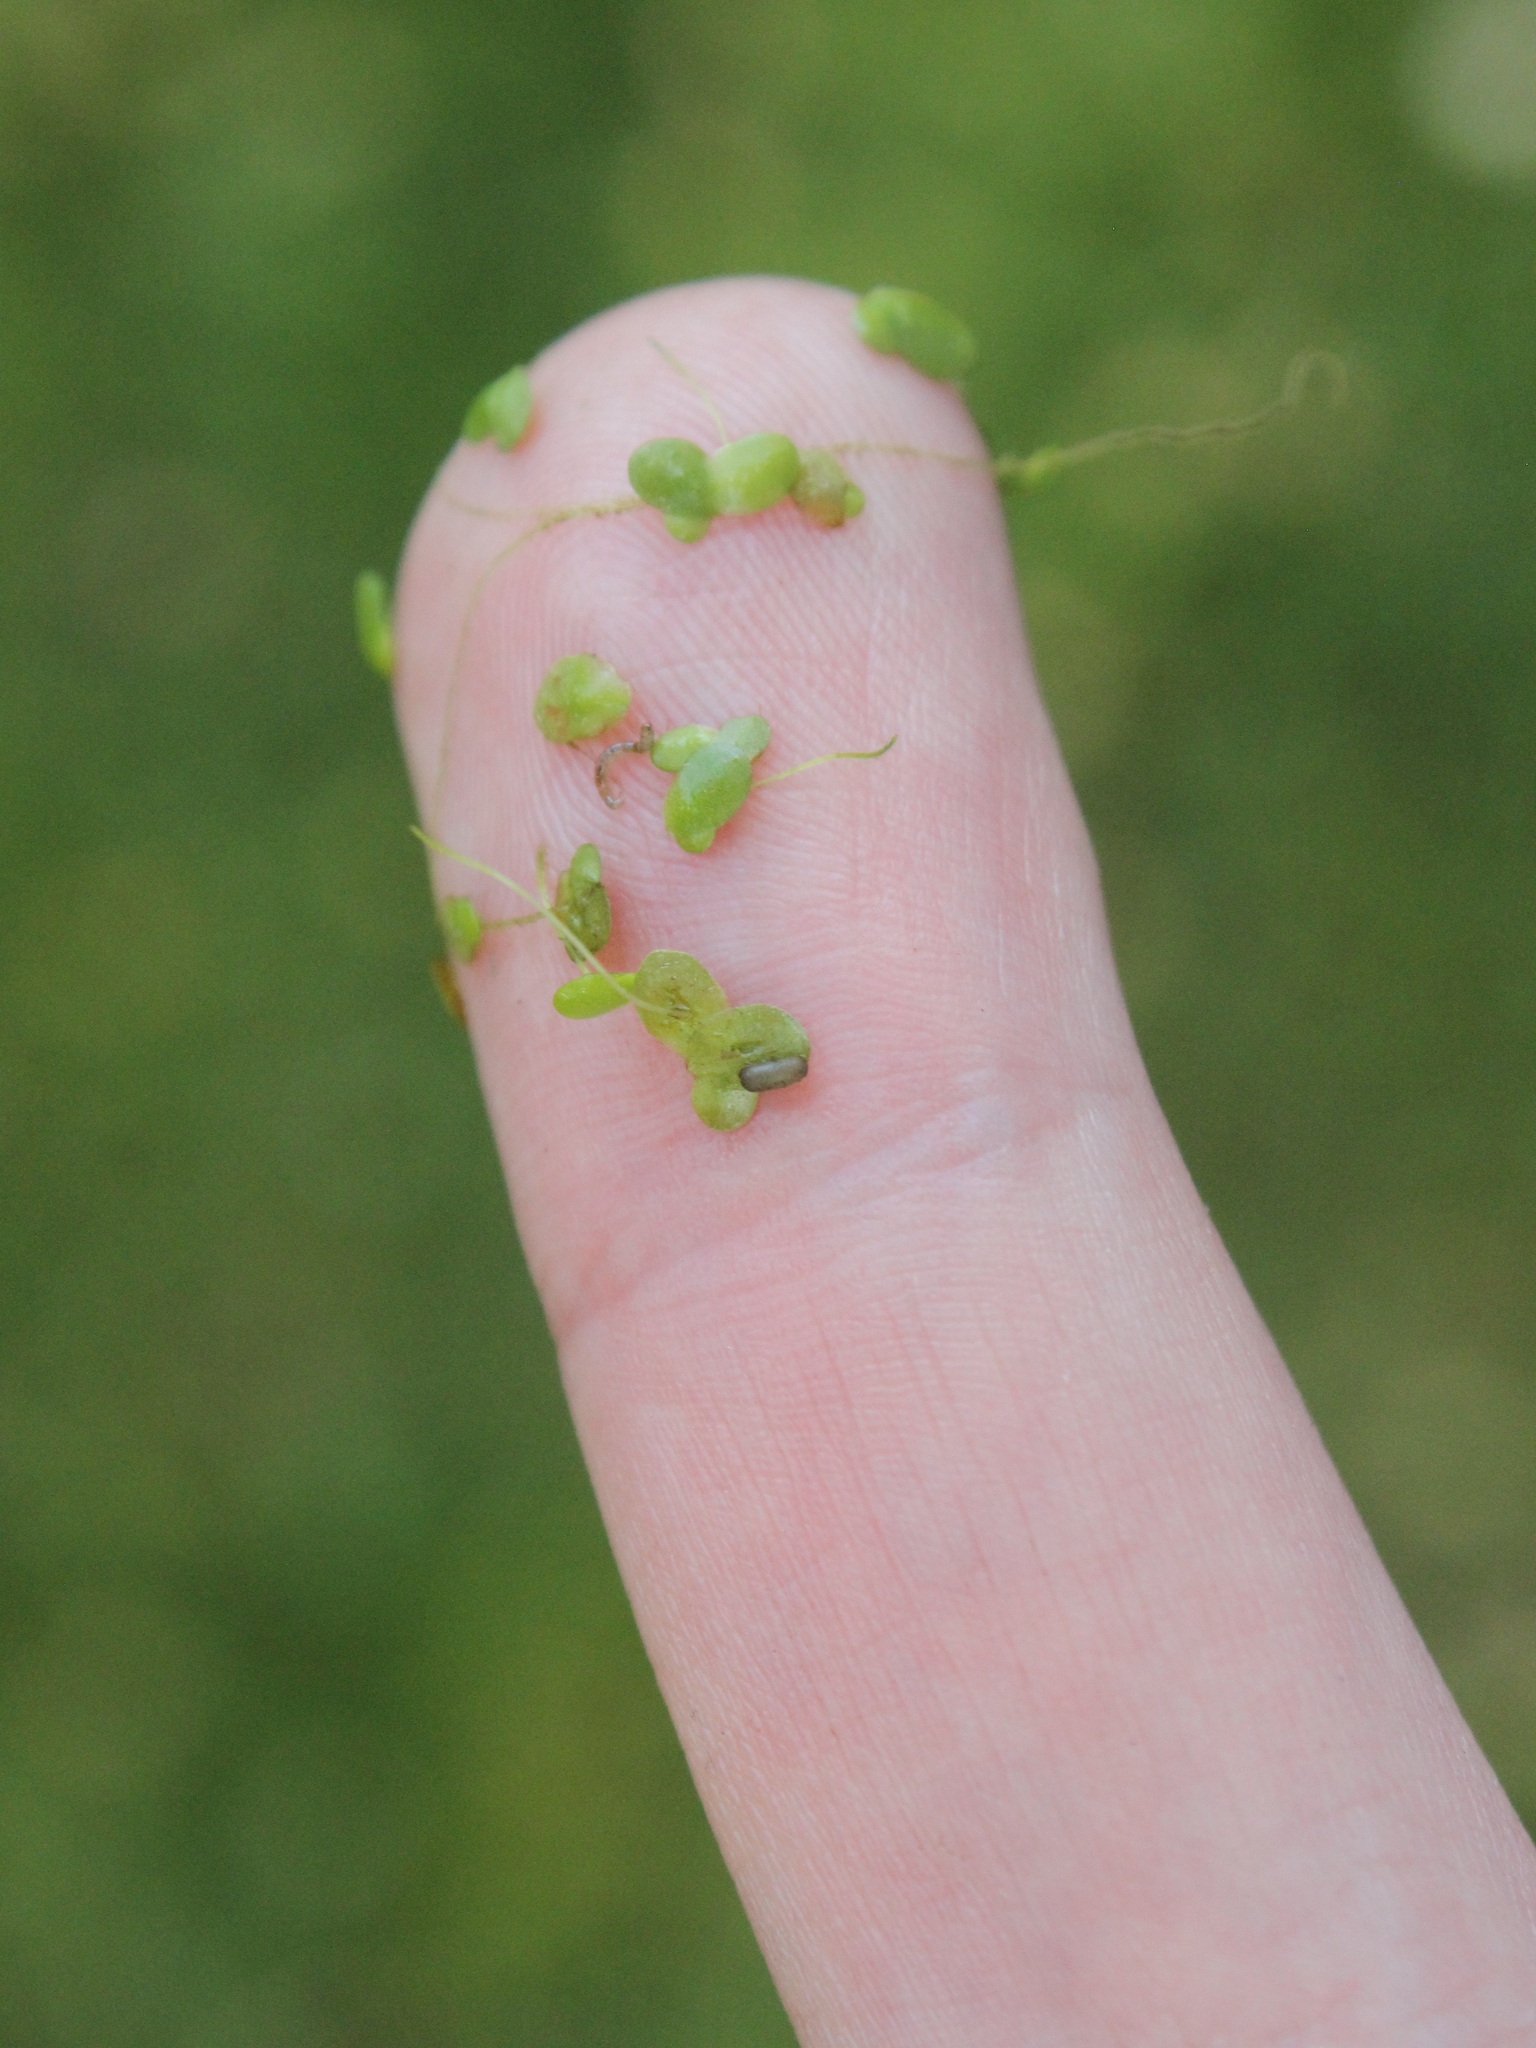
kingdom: Plantae
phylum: Tracheophyta
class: Liliopsida
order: Alismatales
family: Araceae
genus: Lemna
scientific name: Lemna disperma
